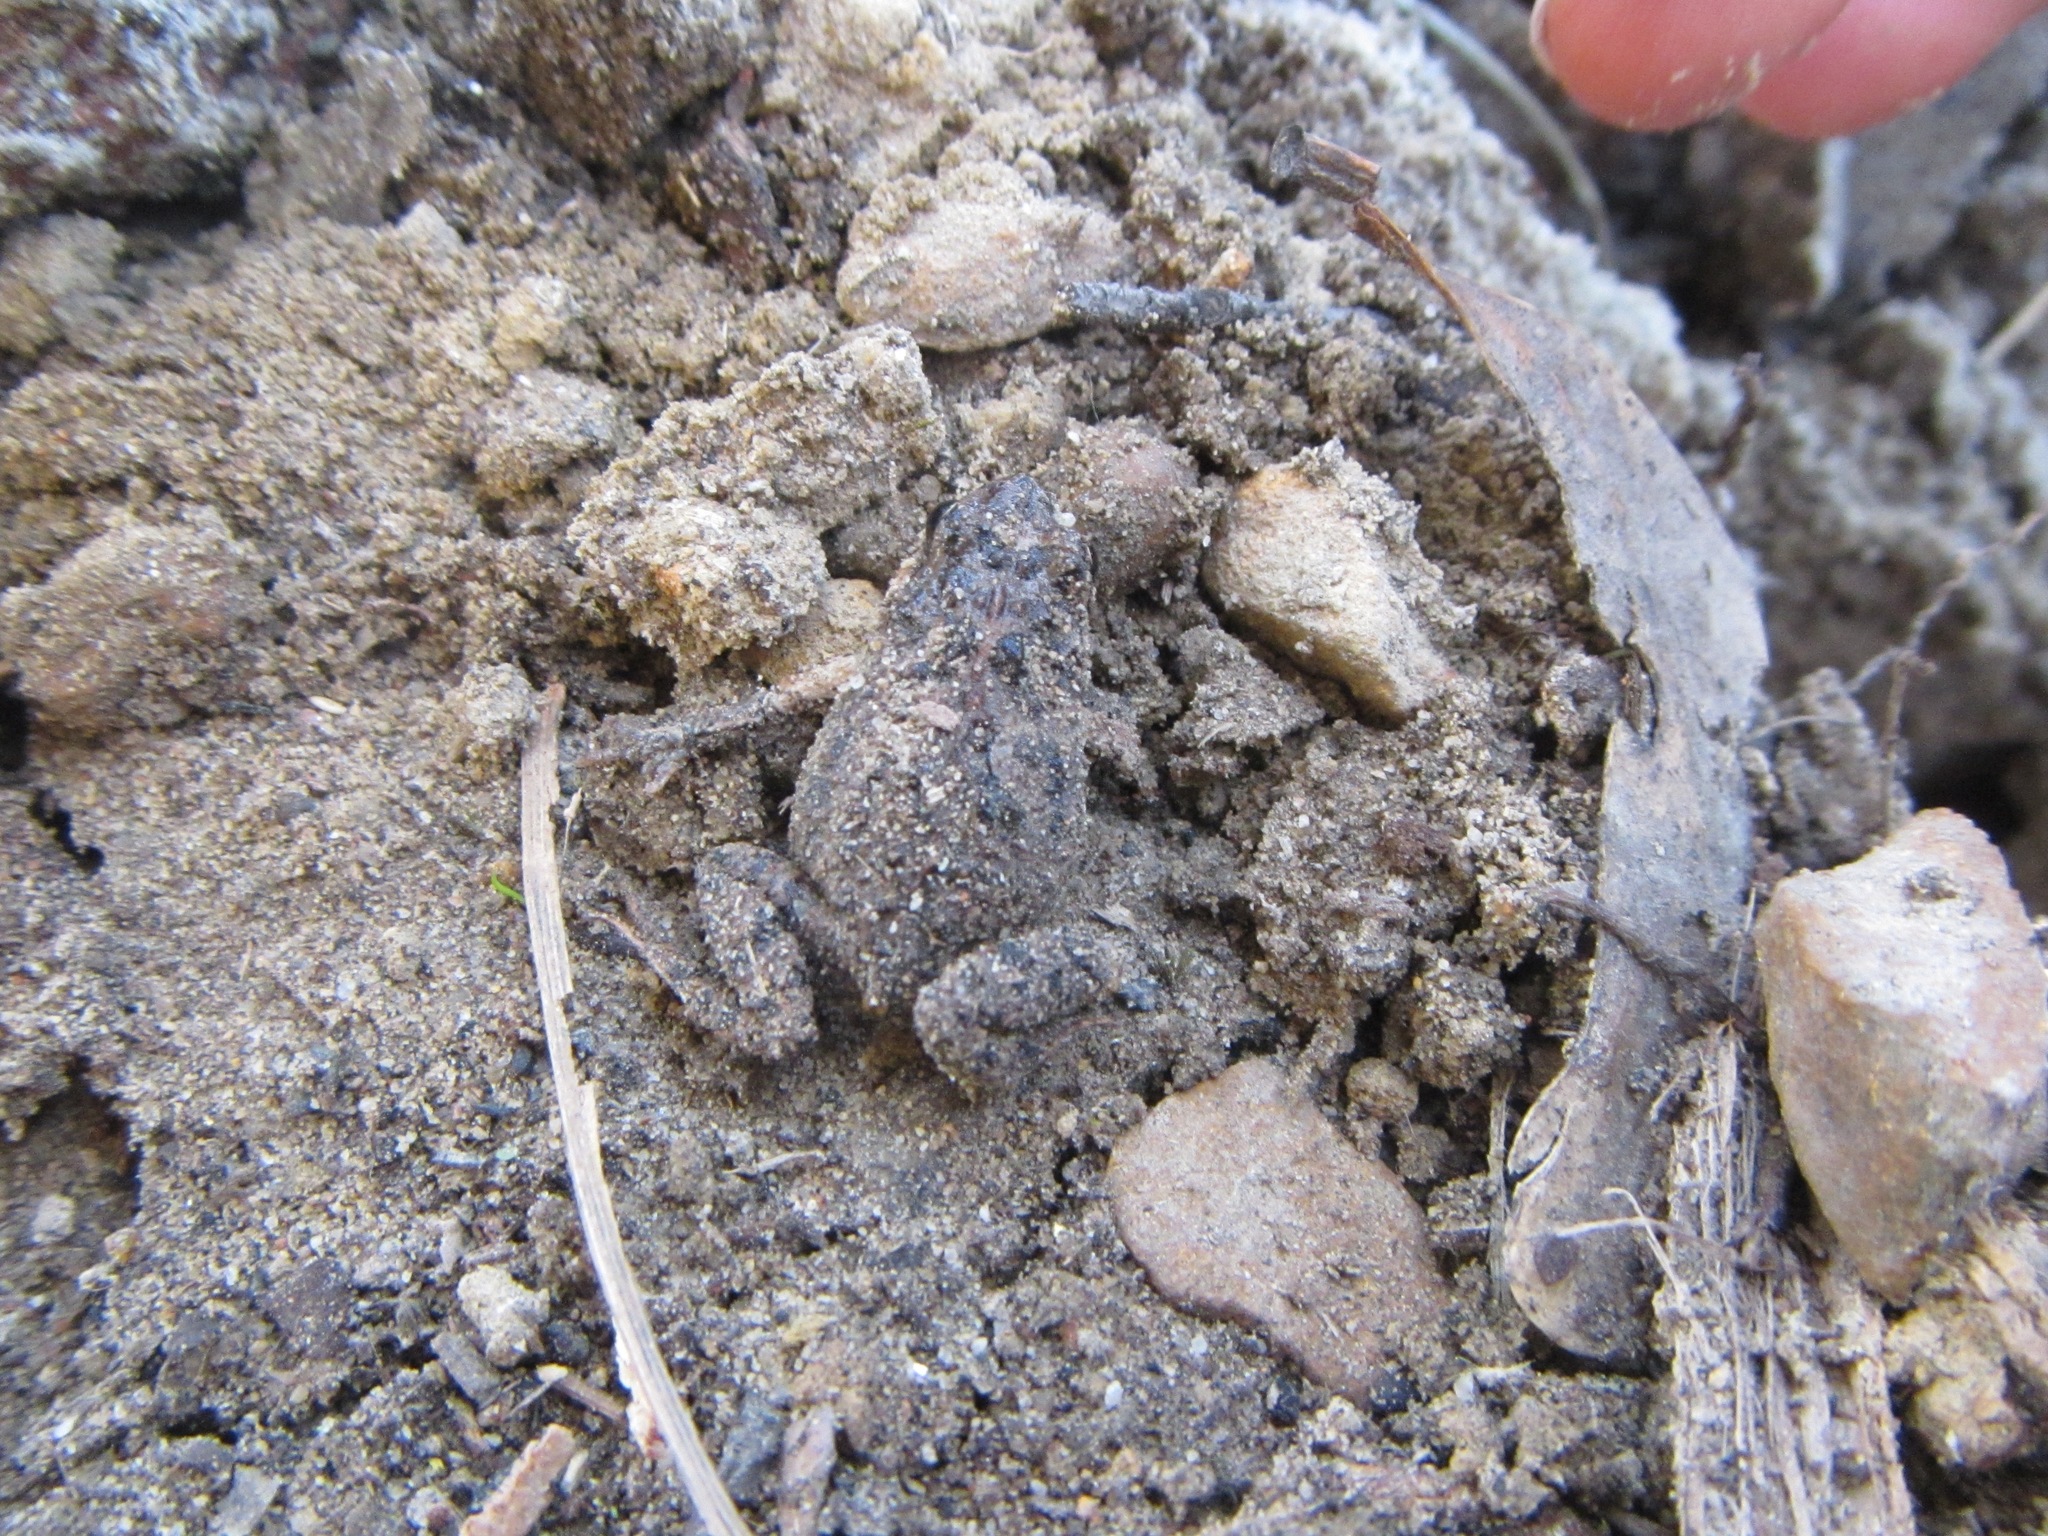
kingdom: Animalia
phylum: Chordata
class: Amphibia
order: Anura
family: Limnodynastidae
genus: Limnodynastes
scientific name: Limnodynastes tasmaniensis
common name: Spotted marsh frog
